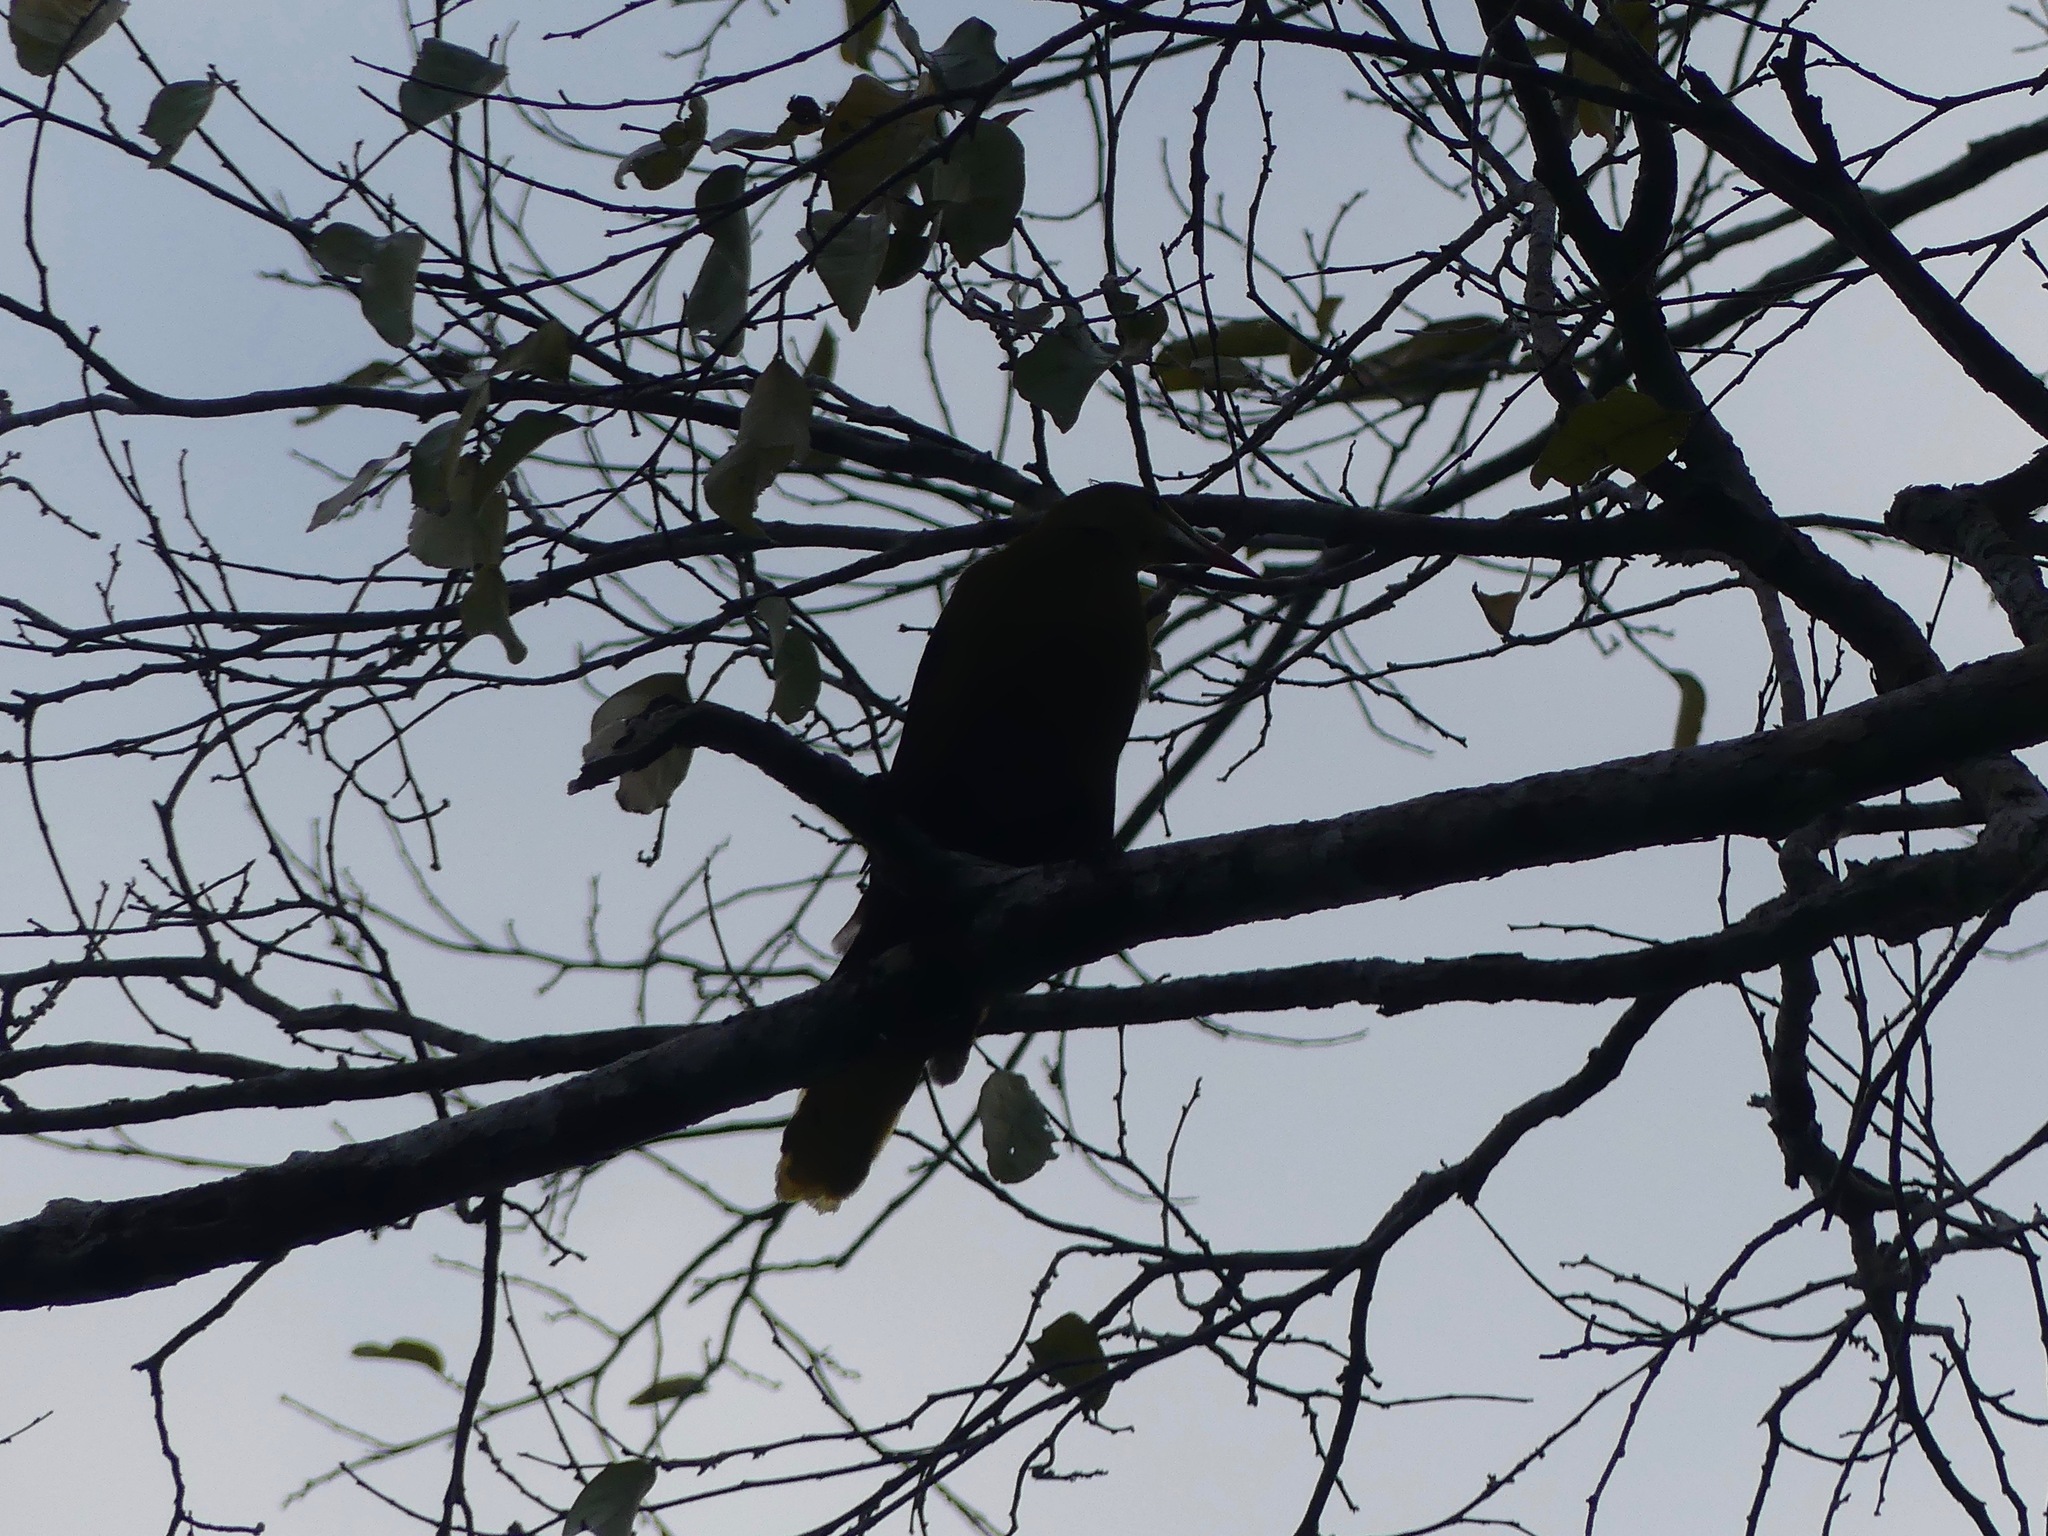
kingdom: Animalia
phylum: Chordata
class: Aves
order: Passeriformes
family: Icteridae
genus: Psarocolius
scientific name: Psarocolius viridis
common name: Green oropendola
